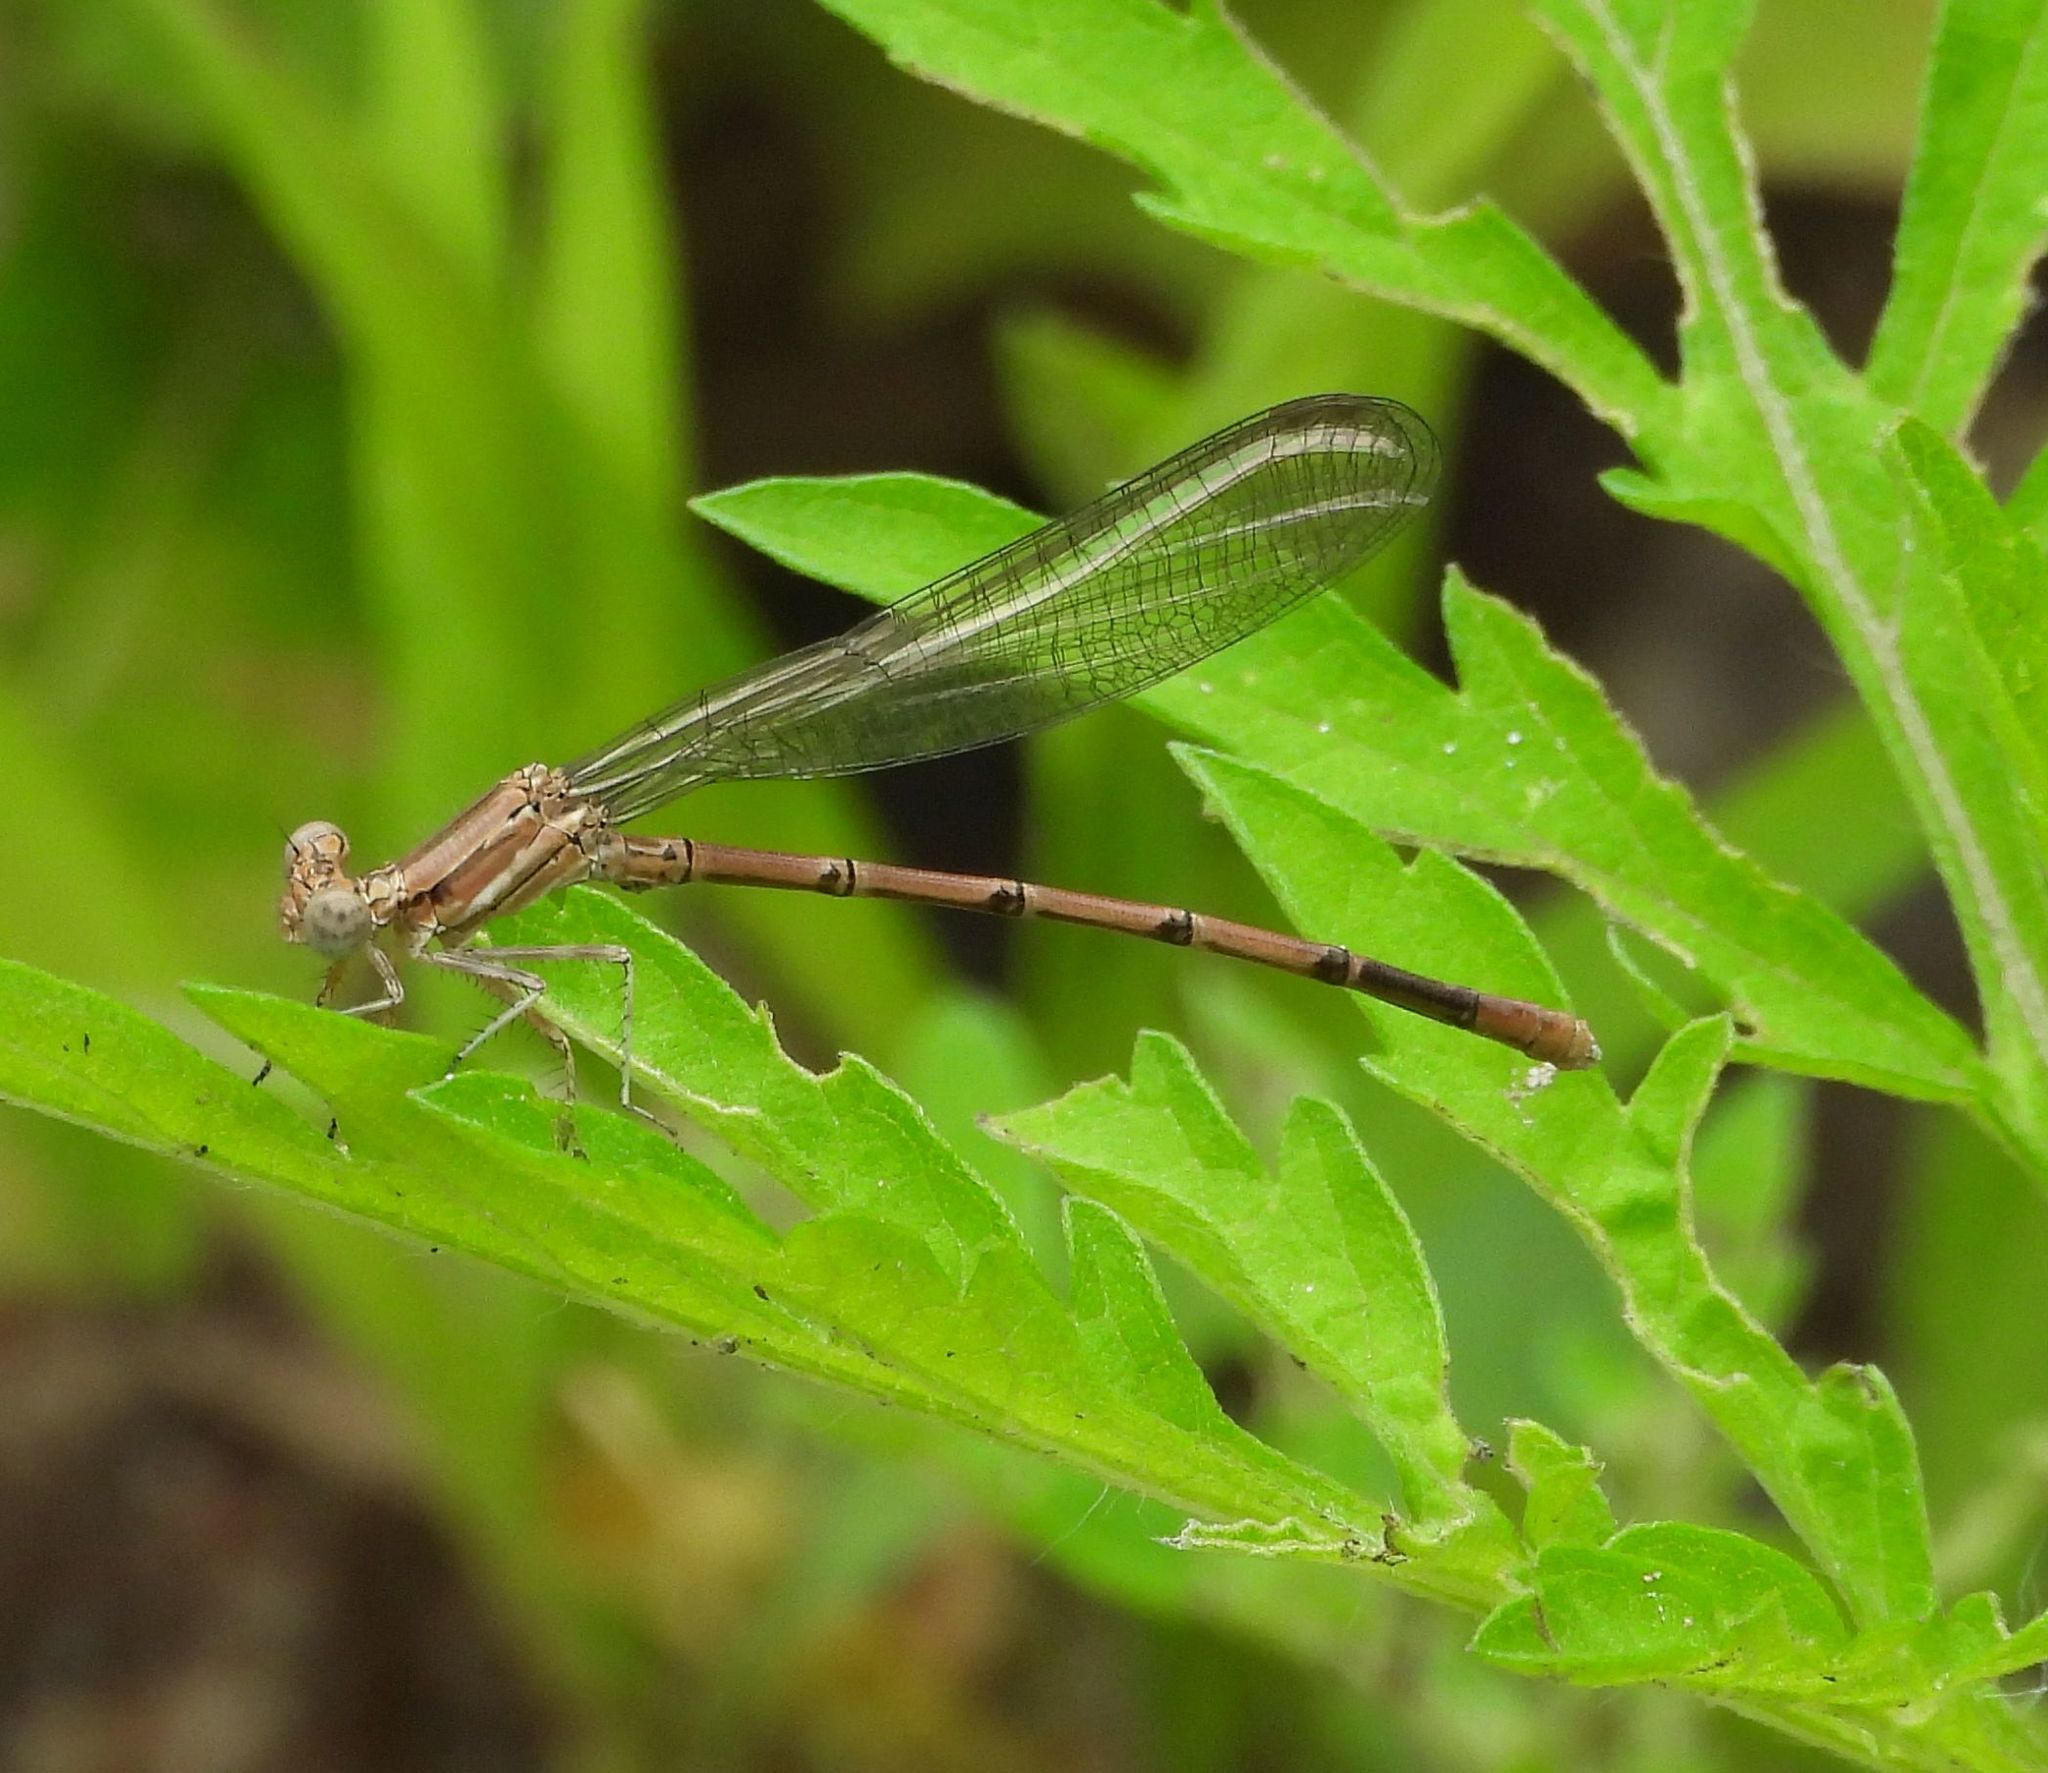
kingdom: Animalia
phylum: Arthropoda
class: Insecta
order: Odonata
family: Coenagrionidae
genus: Argia
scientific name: Argia fumipennis
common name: Variable dancer
